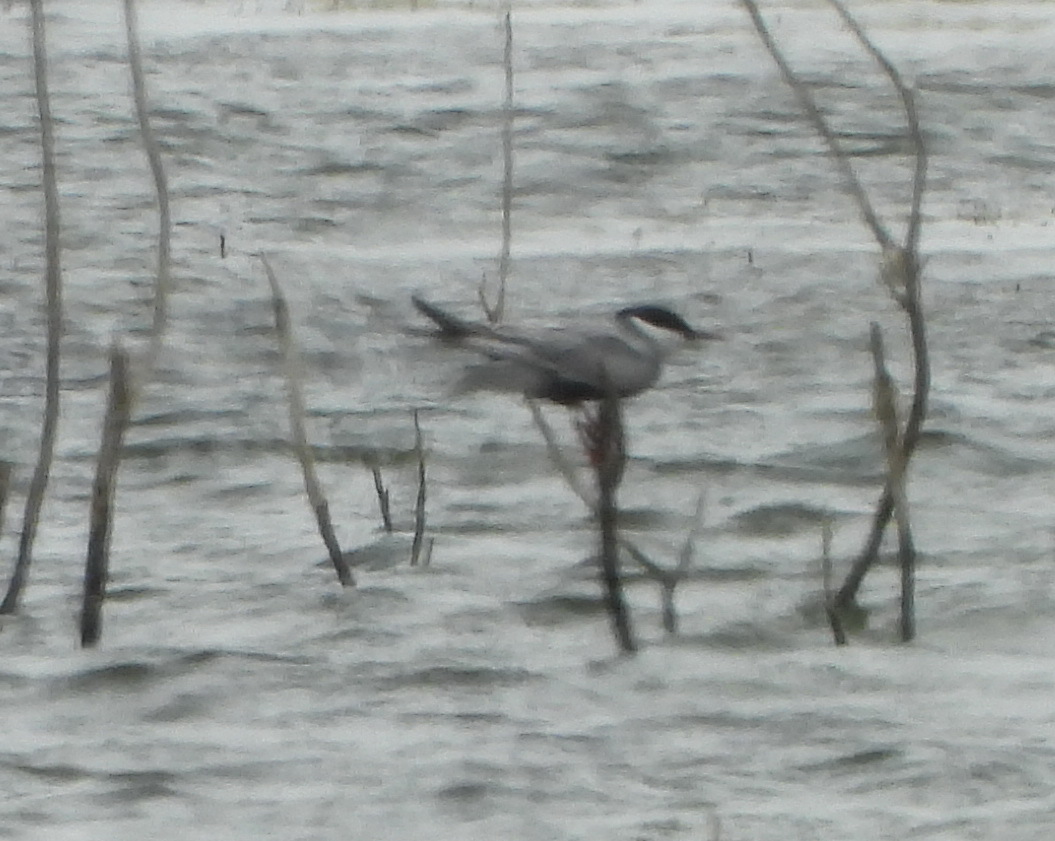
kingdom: Animalia
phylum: Chordata
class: Aves
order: Charadriiformes
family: Laridae
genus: Chlidonias
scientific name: Chlidonias hybrida
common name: Whiskered tern
